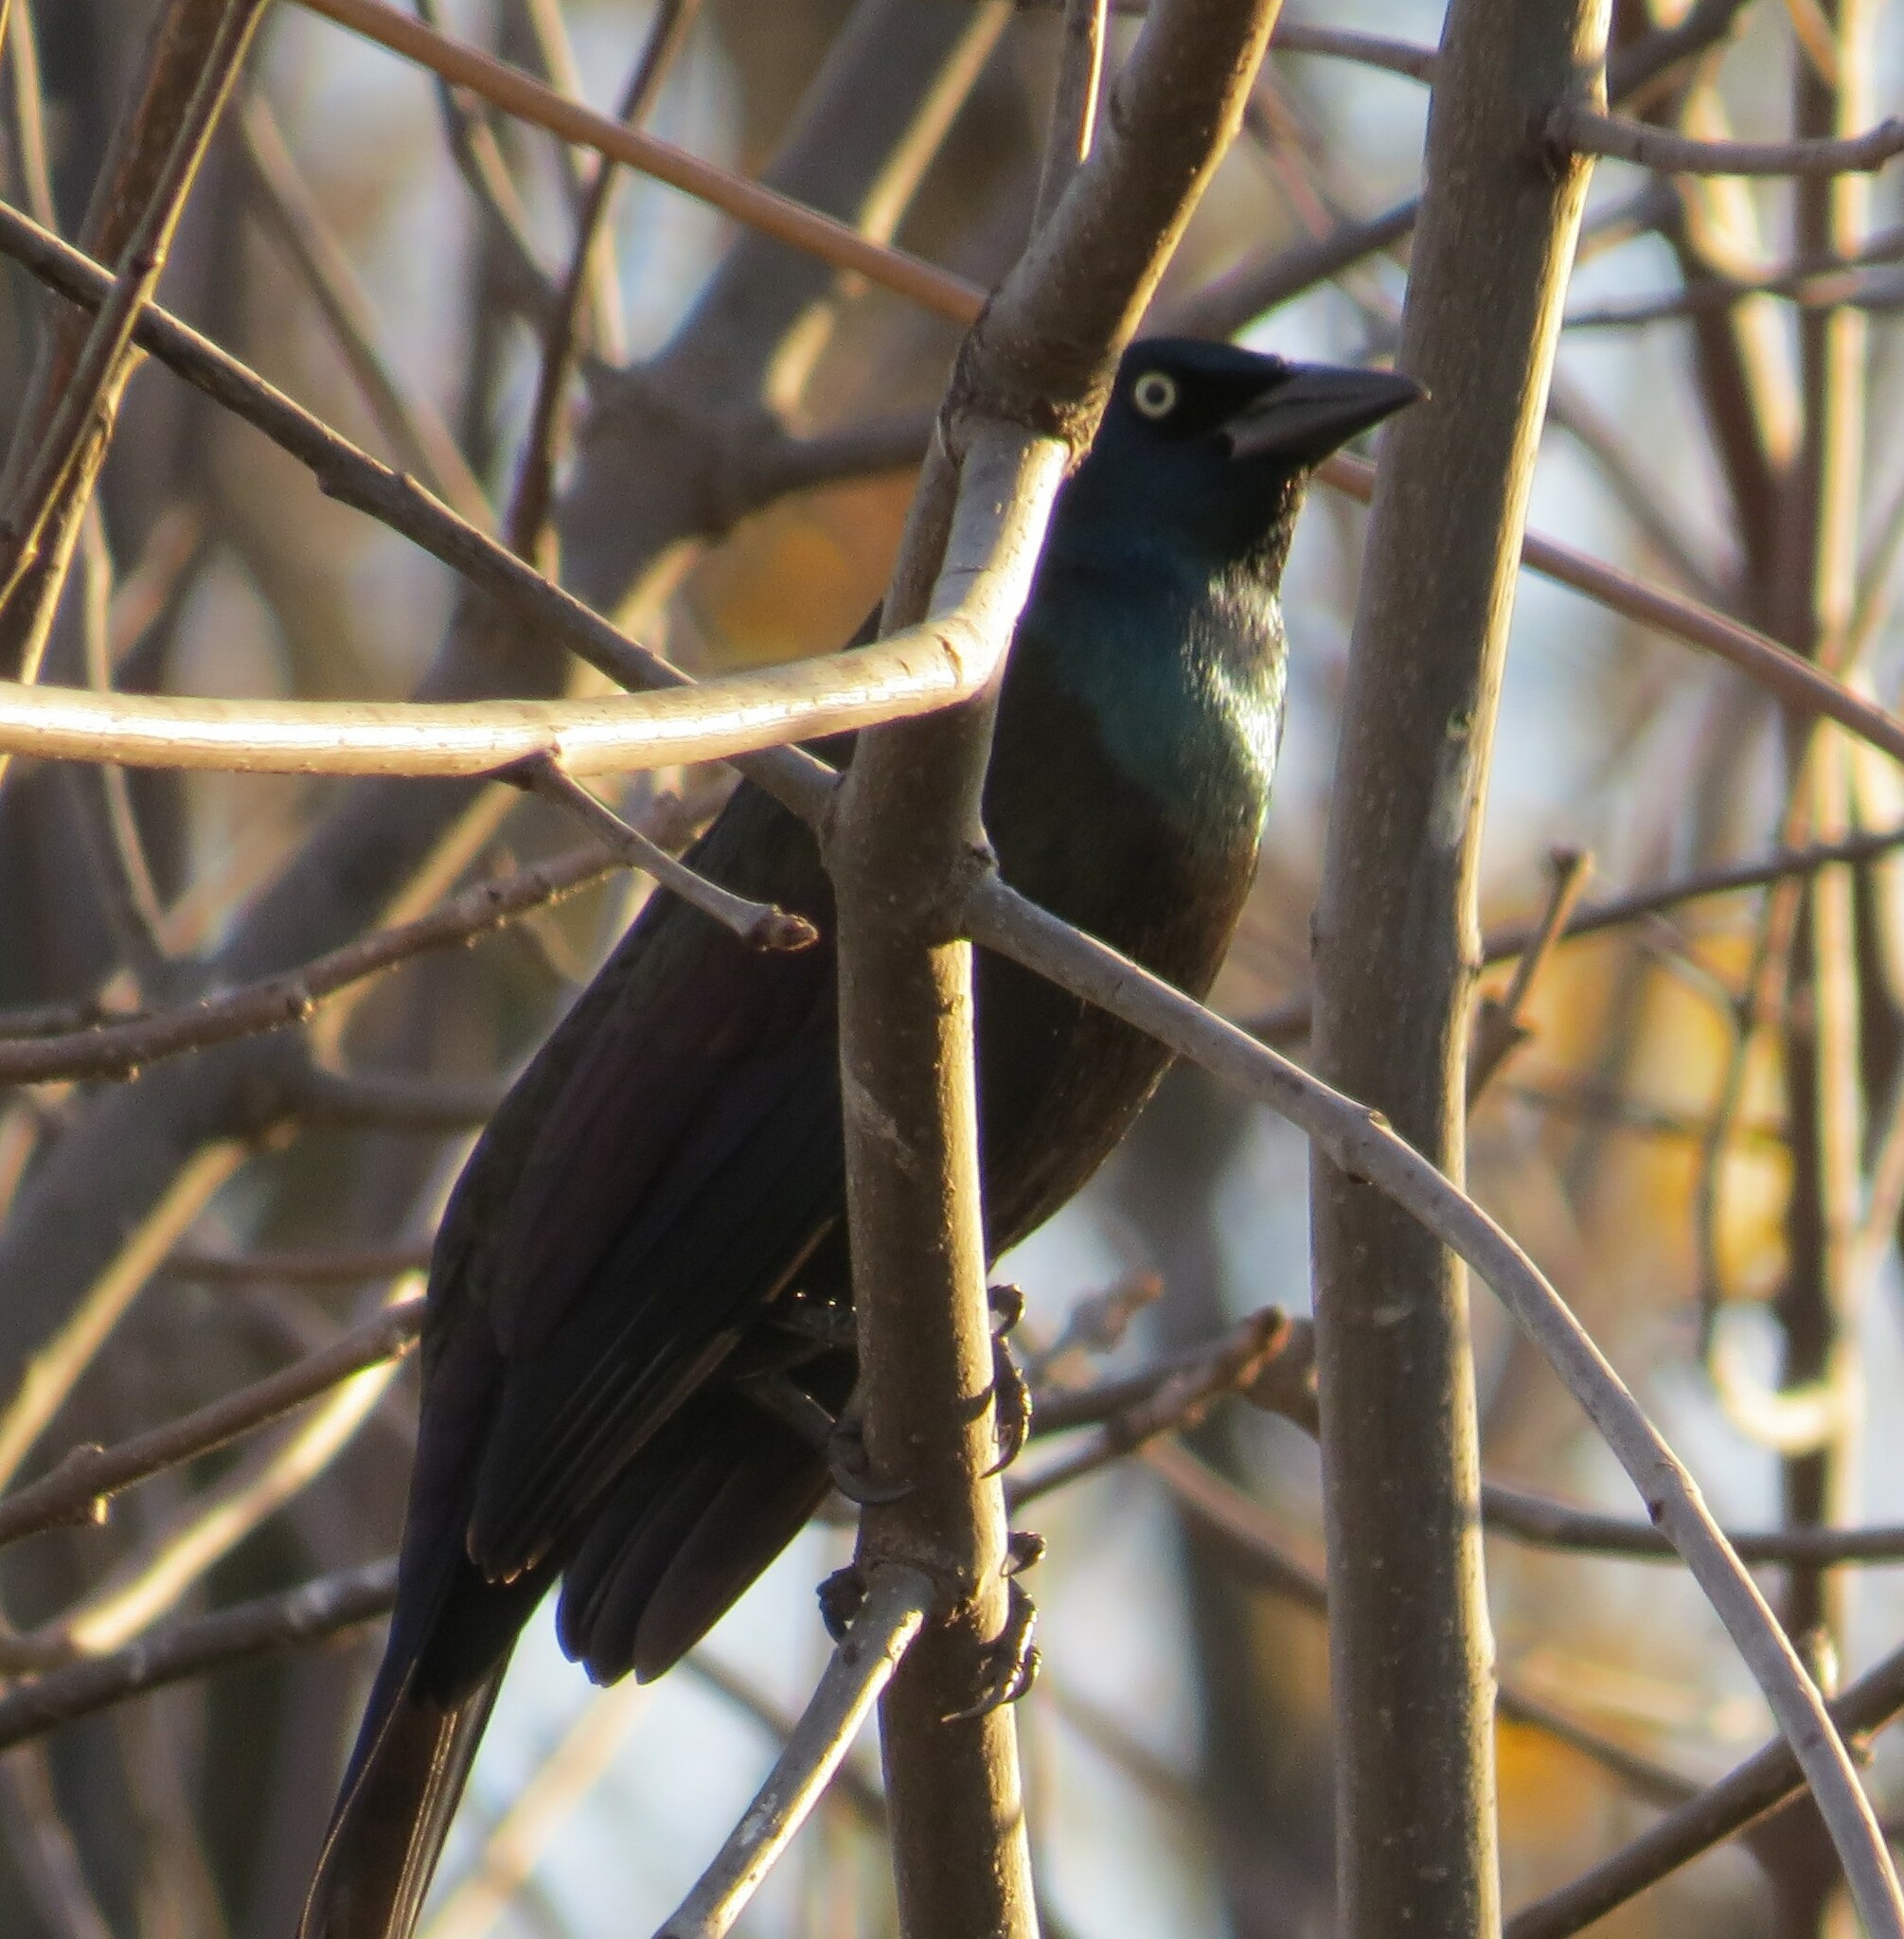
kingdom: Animalia
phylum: Chordata
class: Aves
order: Passeriformes
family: Icteridae
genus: Quiscalus
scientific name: Quiscalus quiscula
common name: Common grackle
